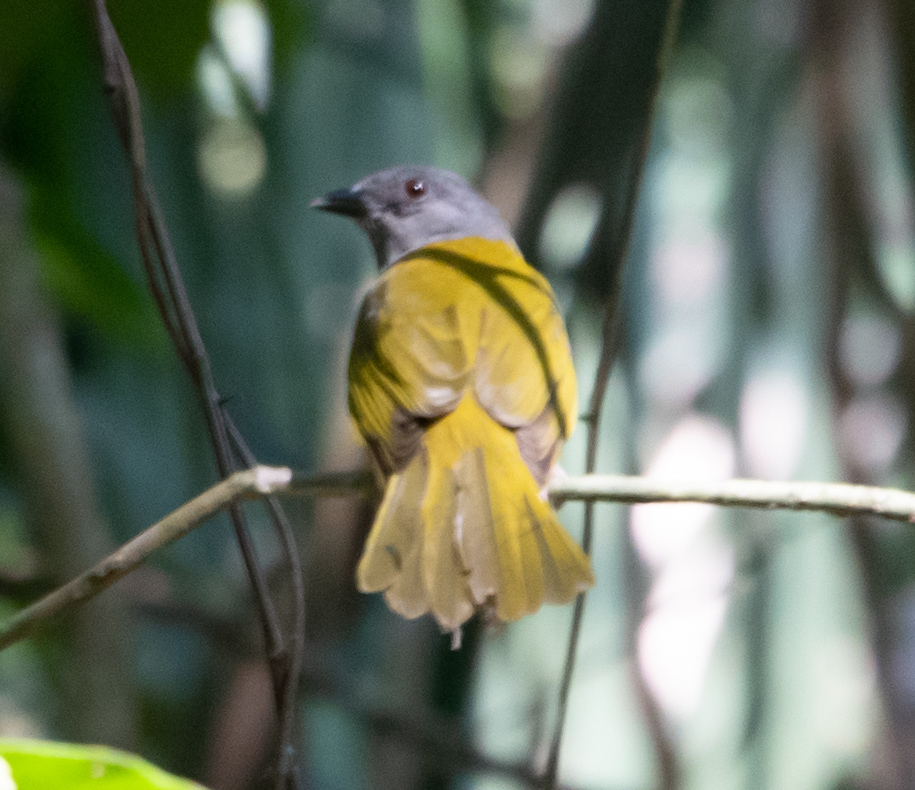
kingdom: Animalia
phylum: Chordata
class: Aves
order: Passeriformes
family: Thraupidae
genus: Eucometis
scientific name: Eucometis penicillata
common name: Grey-headed tanager
